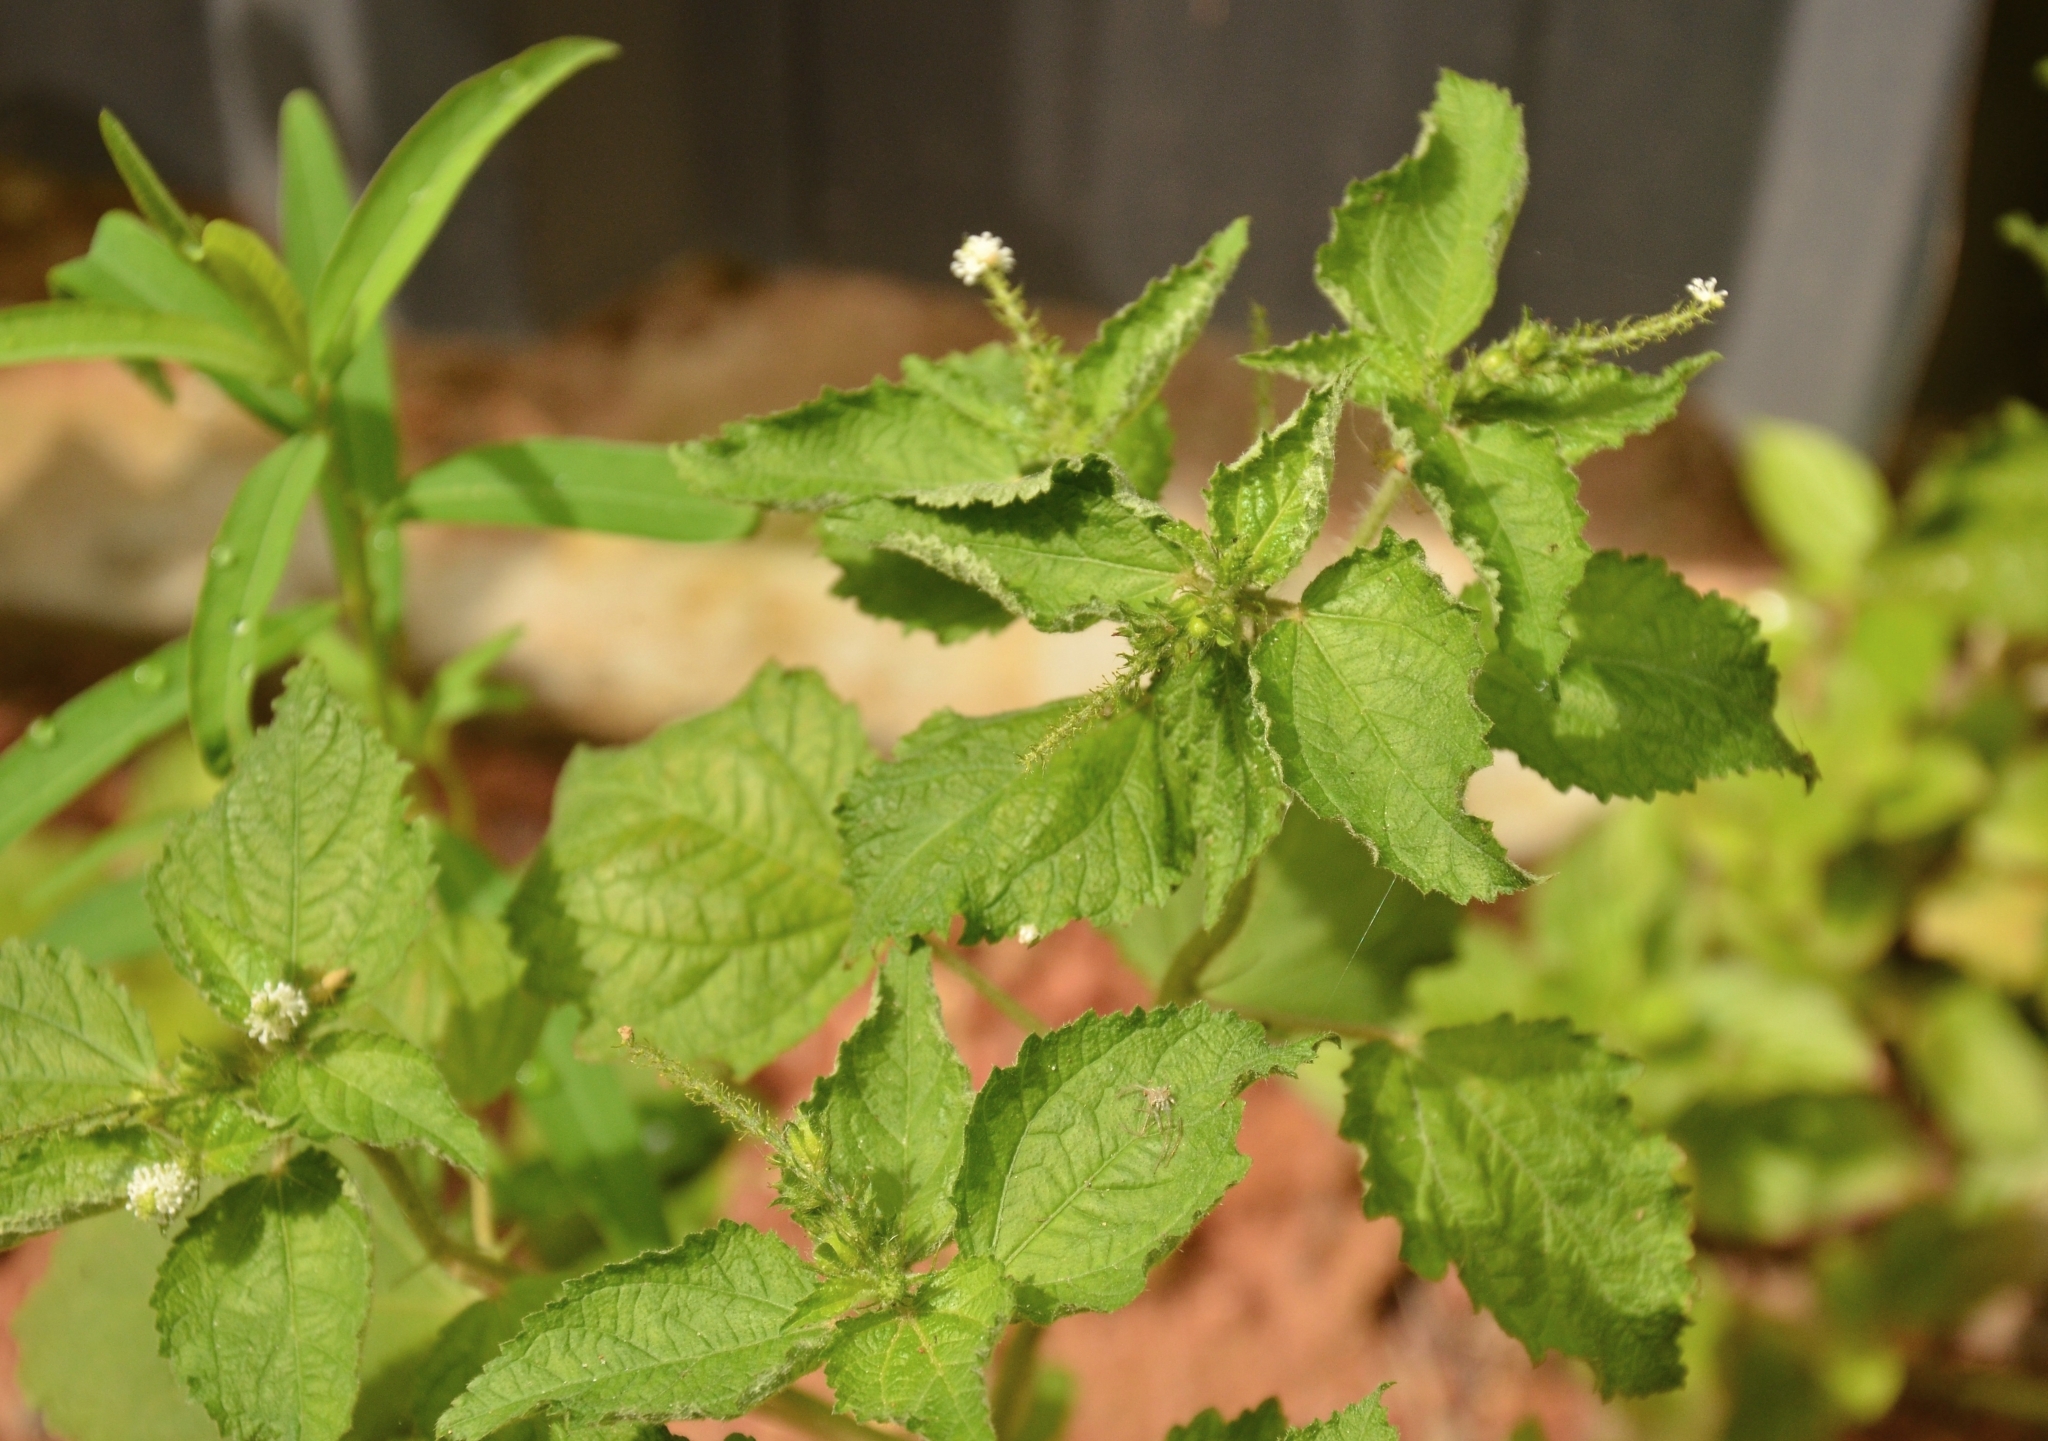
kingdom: Plantae
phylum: Tracheophyta
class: Magnoliopsida
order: Malpighiales
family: Euphorbiaceae
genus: Croton
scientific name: Croton hirtus
